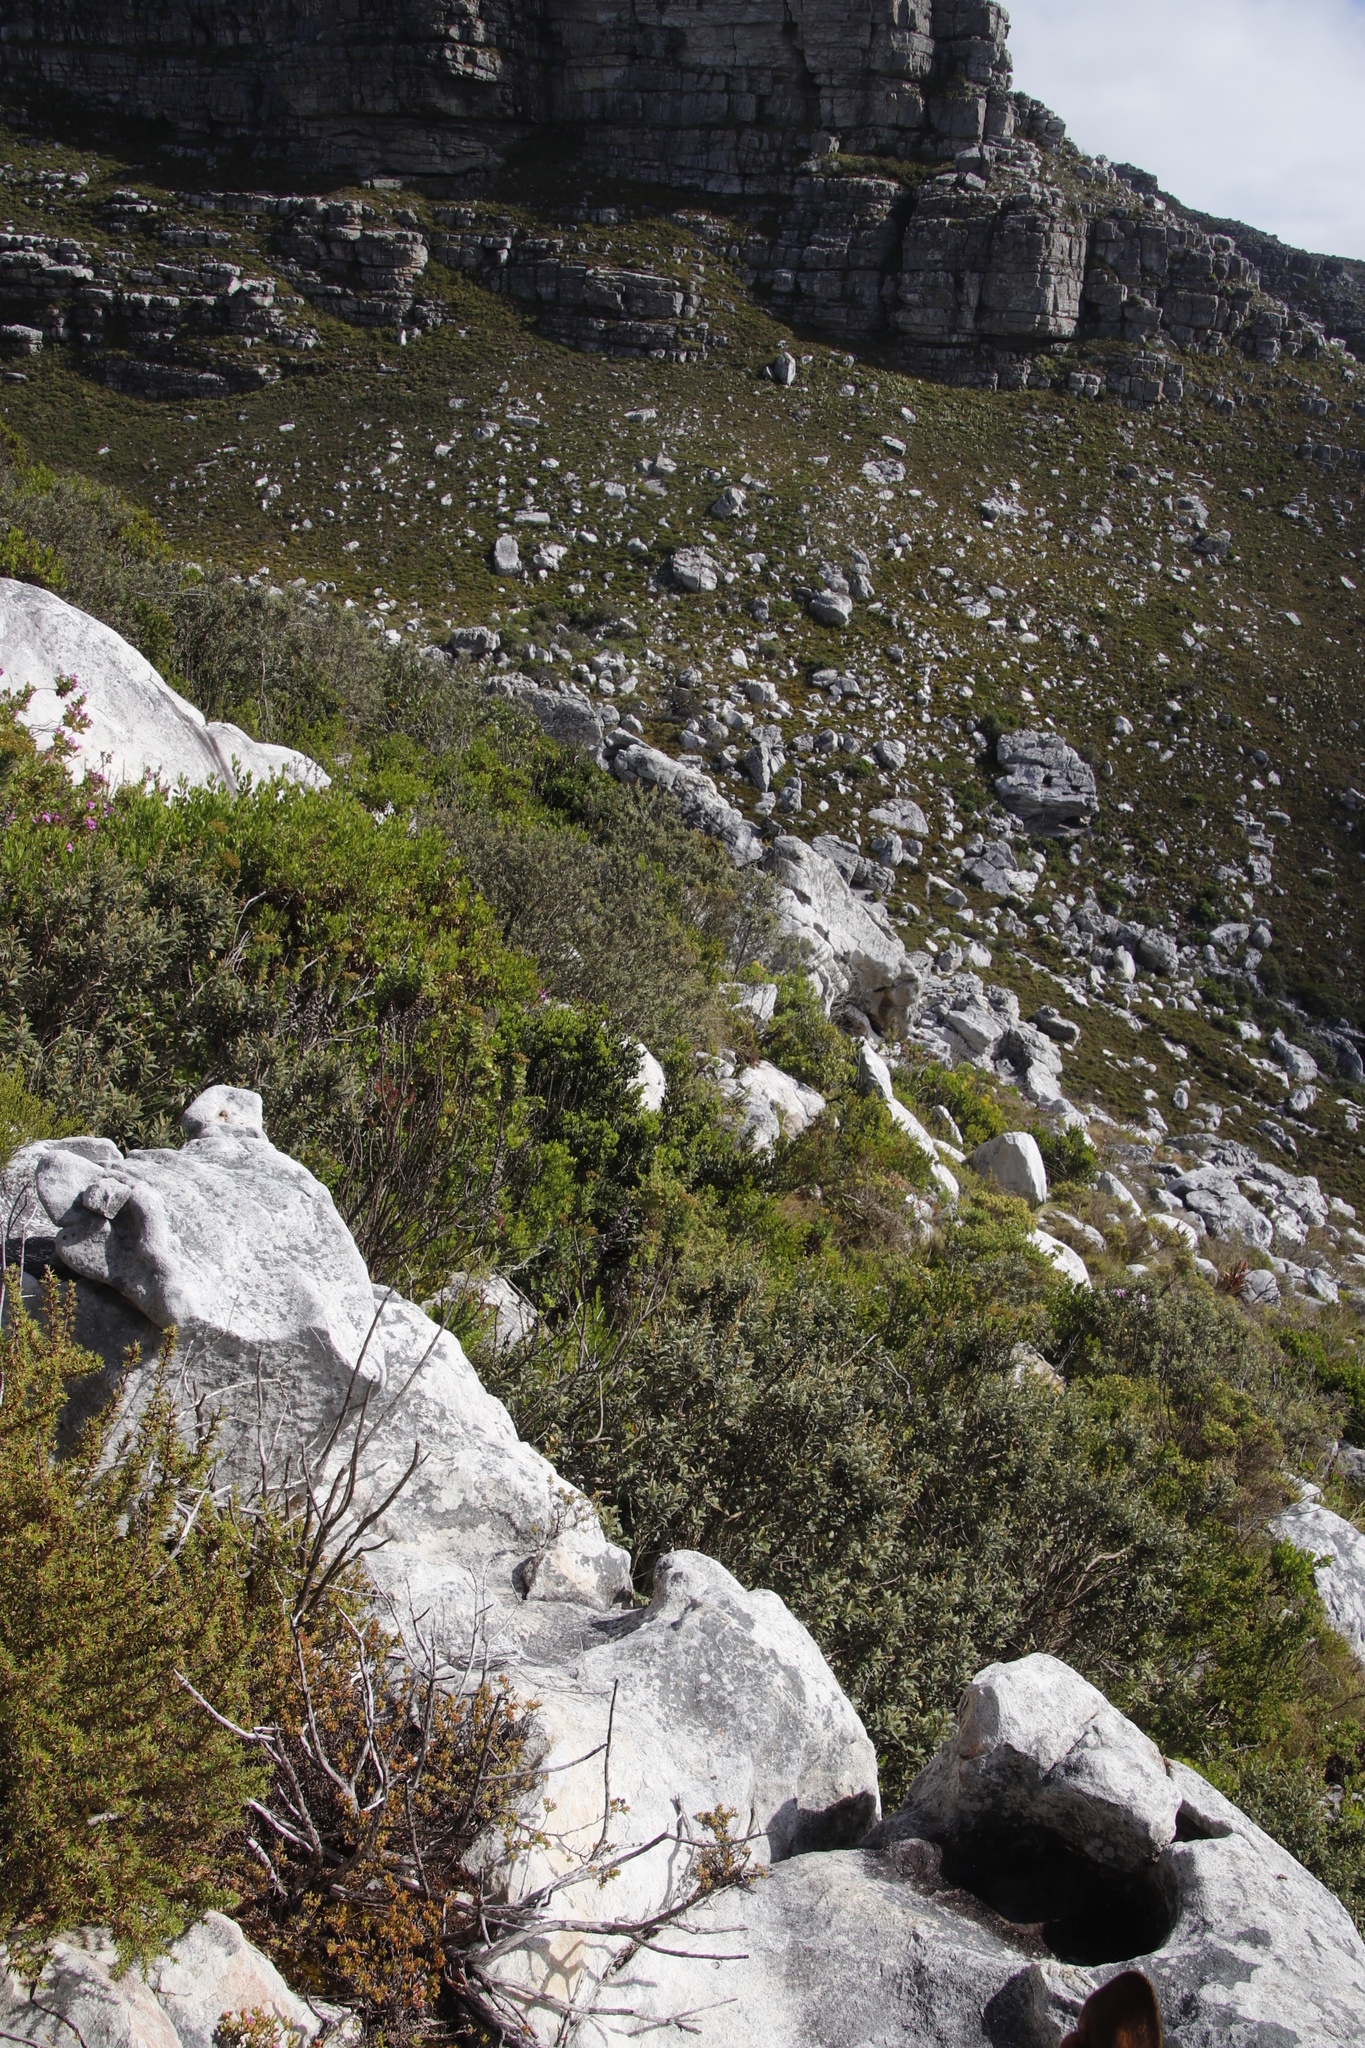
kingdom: Plantae
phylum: Tracheophyta
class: Magnoliopsida
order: Asterales
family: Asteraceae
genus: Tarchonanthus
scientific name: Tarchonanthus littoralis
